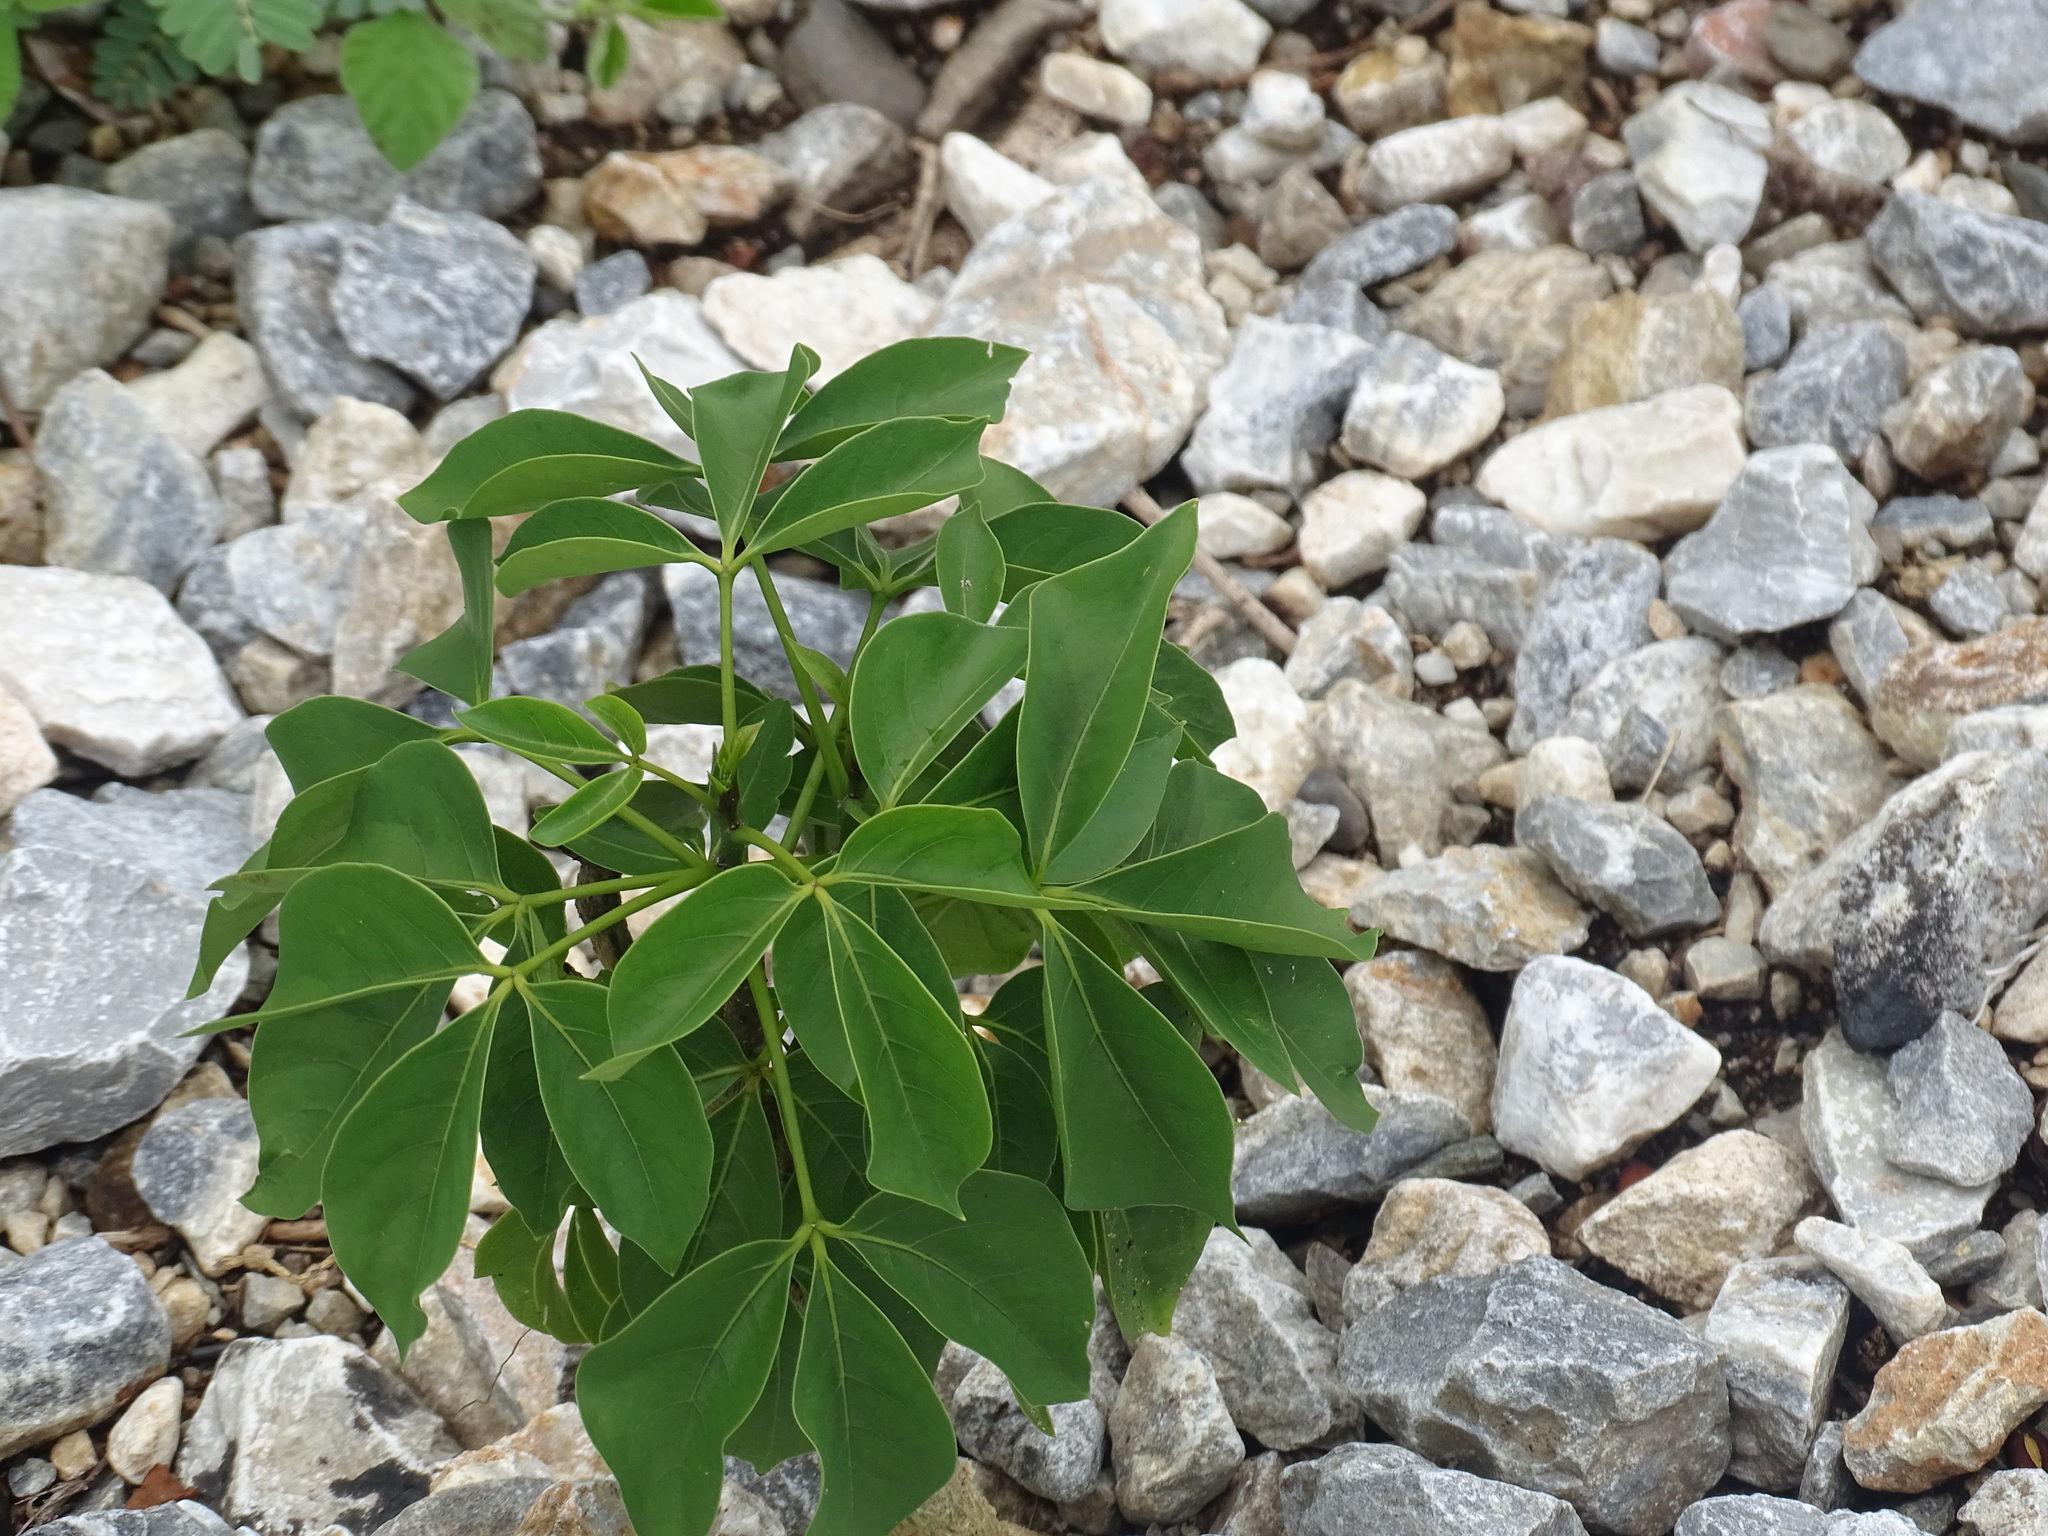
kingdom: Plantae
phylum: Tracheophyta
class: Magnoliopsida
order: Brassicales
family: Capparaceae
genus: Crateva
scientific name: Crateva tapia
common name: Garlic-pear
